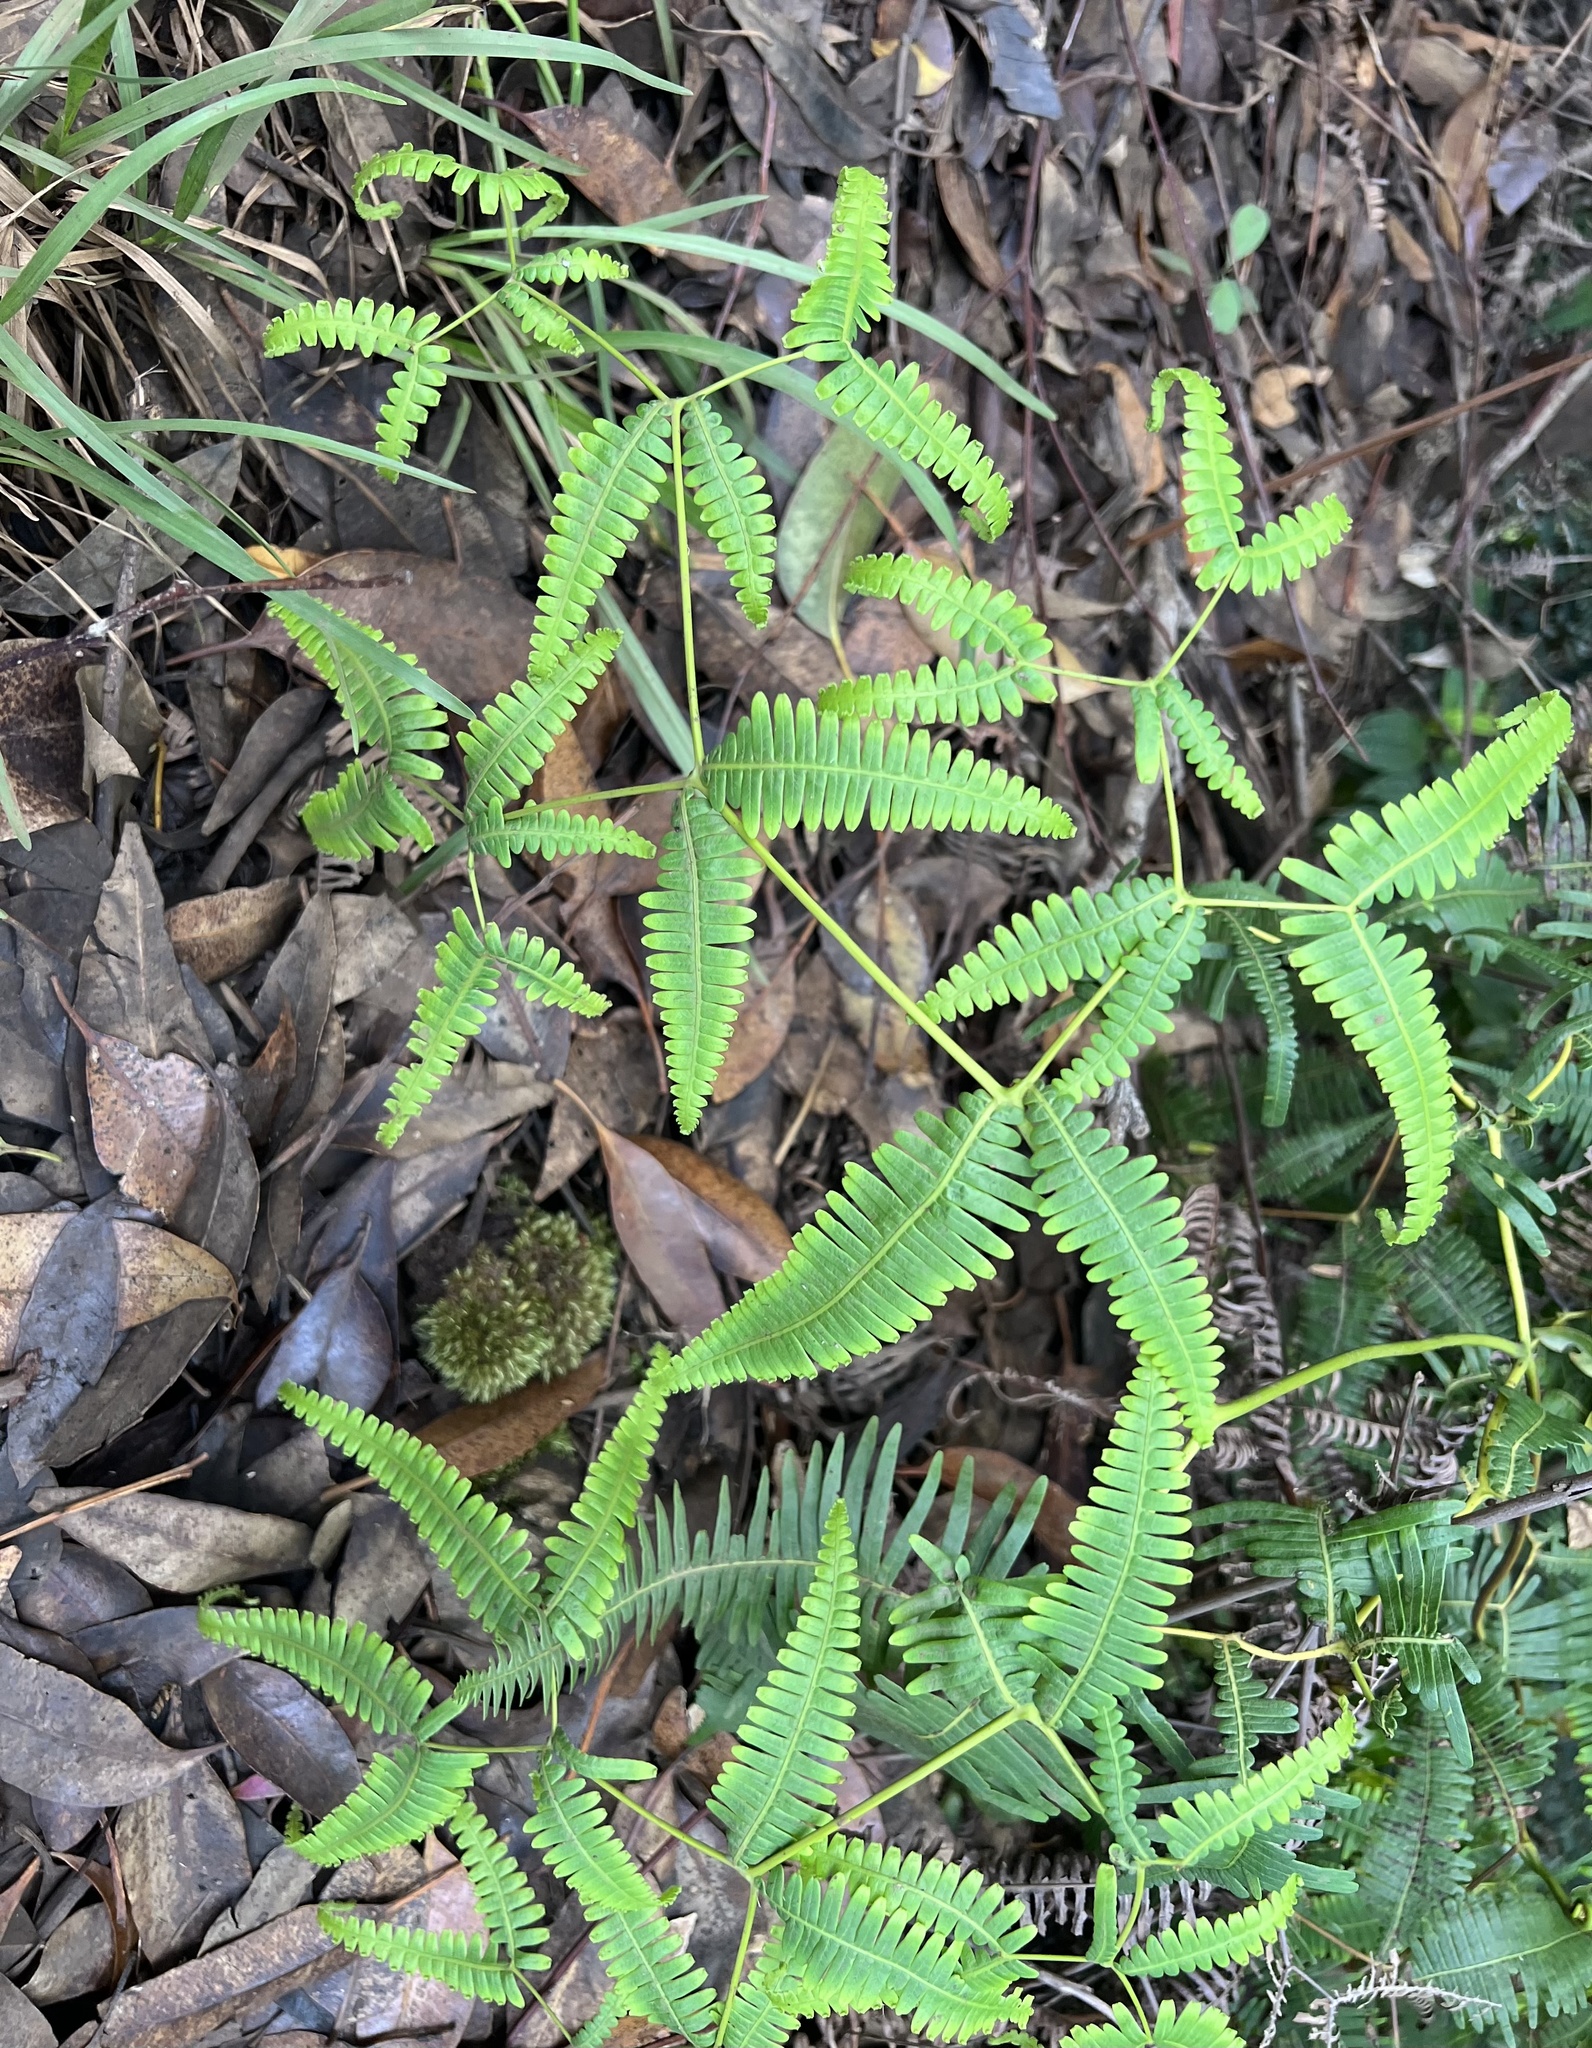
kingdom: Plantae
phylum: Tracheophyta
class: Polypodiopsida
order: Gleicheniales
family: Gleicheniaceae
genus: Dicranopteris
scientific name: Dicranopteris linearis
